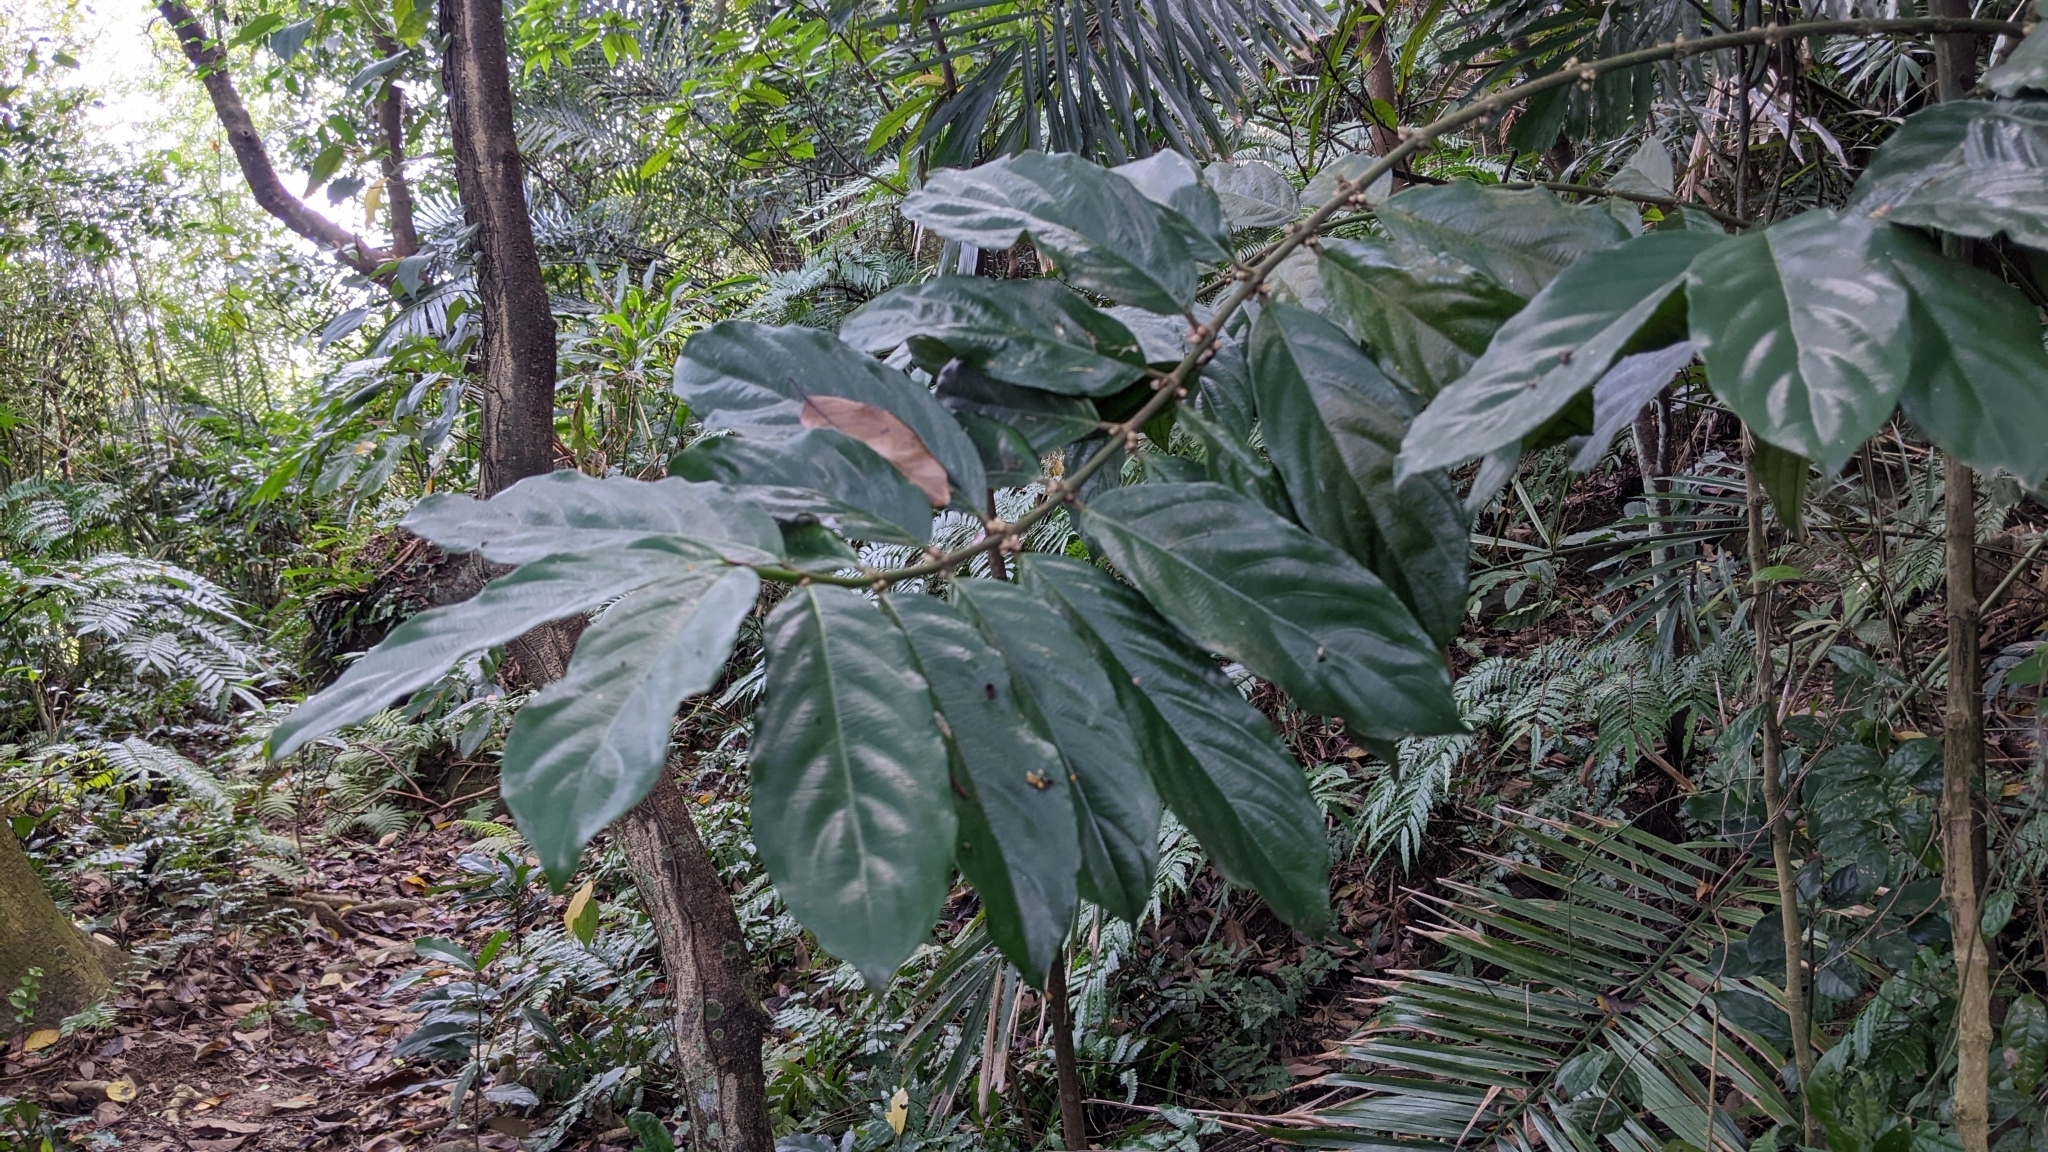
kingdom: Plantae
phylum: Tracheophyta
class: Magnoliopsida
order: Gentianales
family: Rubiaceae
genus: Lasianthus
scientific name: Lasianthus verticillatus
